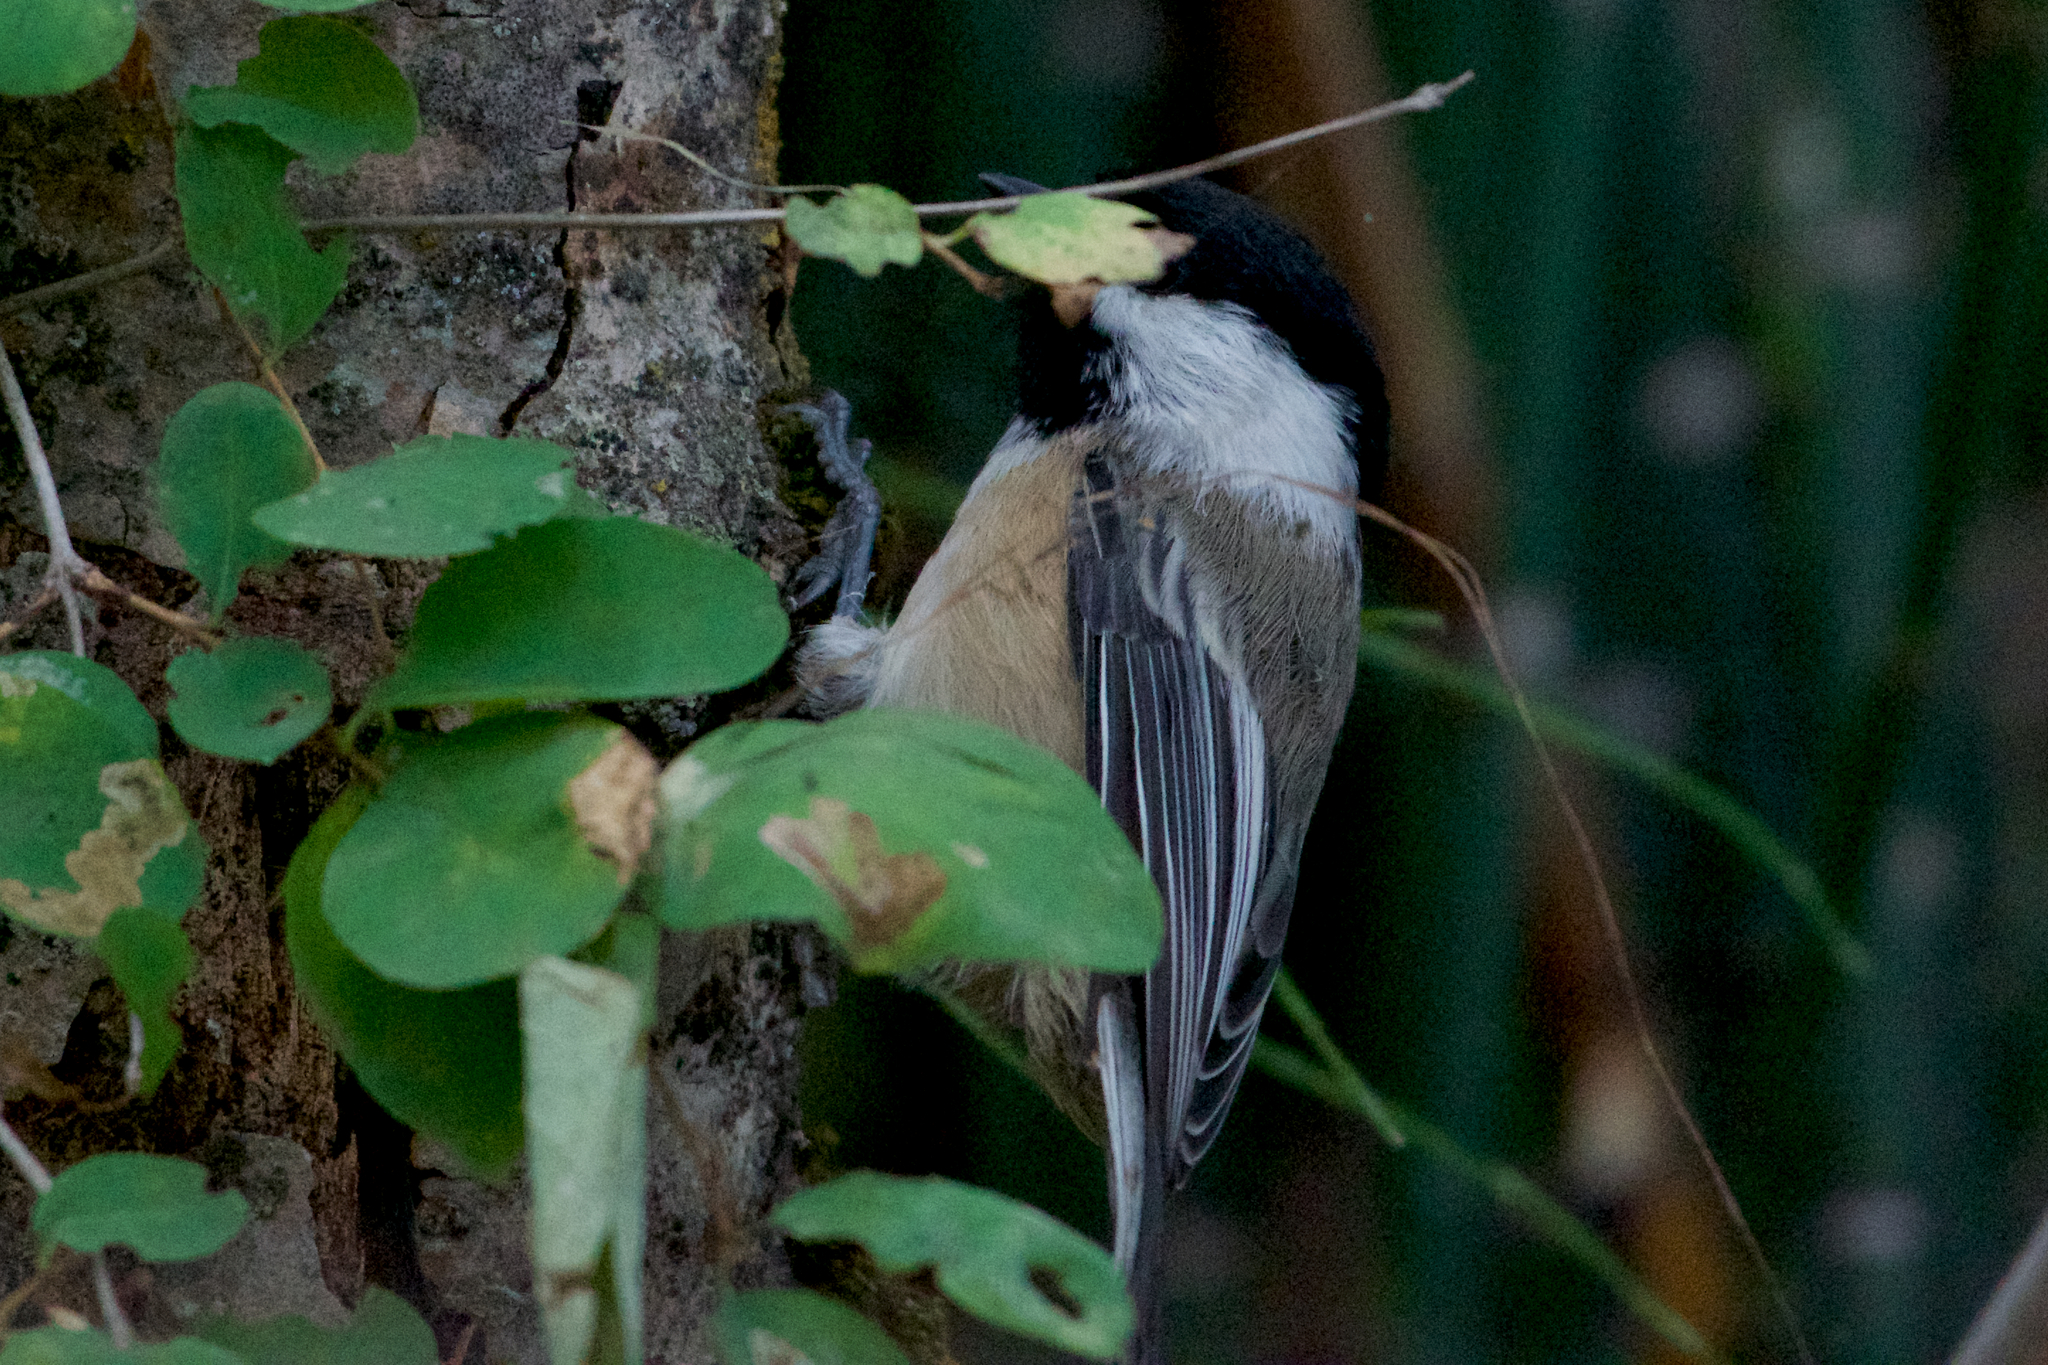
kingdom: Animalia
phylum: Chordata
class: Aves
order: Passeriformes
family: Paridae
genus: Poecile
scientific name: Poecile atricapillus
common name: Black-capped chickadee
